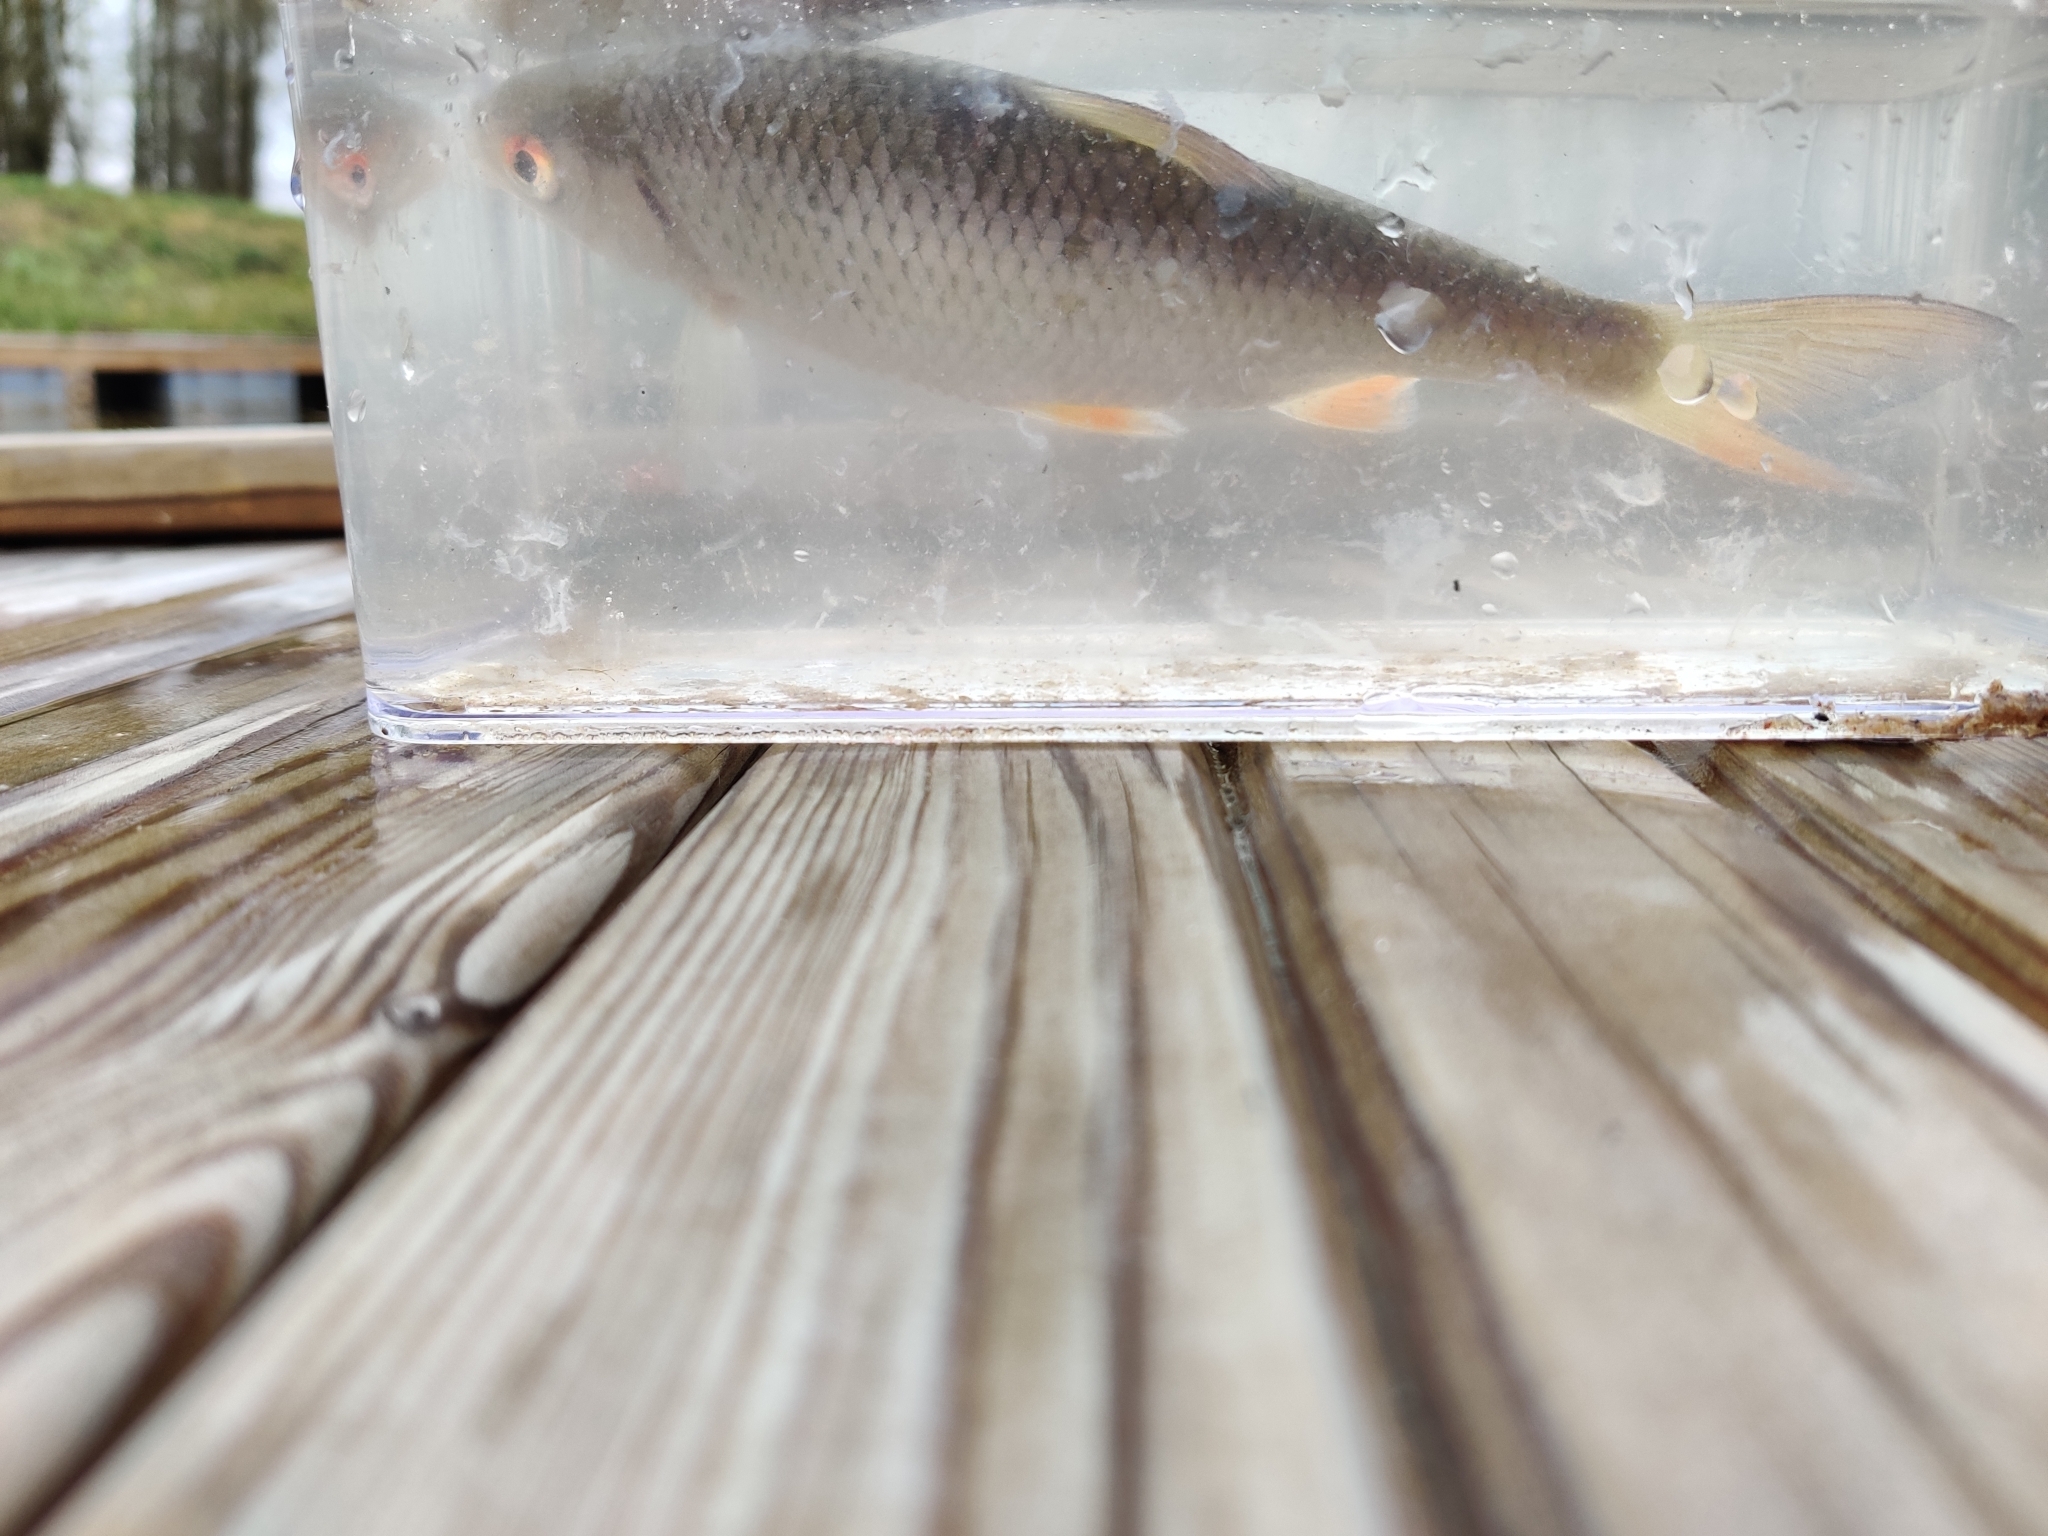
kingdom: Animalia
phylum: Chordata
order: Cypriniformes
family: Cyprinidae
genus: Rutilus
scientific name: Rutilus rutilus
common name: Roach
